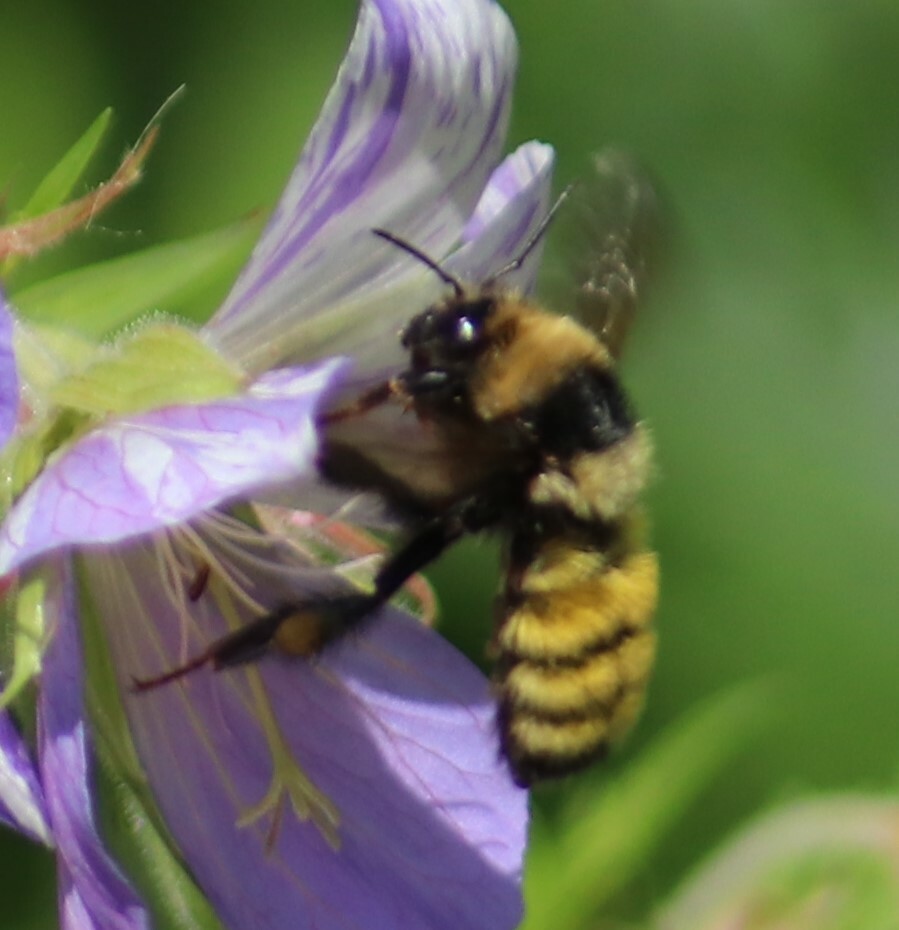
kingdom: Animalia
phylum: Arthropoda
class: Insecta
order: Hymenoptera
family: Apidae
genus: Bombus
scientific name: Bombus borealis
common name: Northern amber bumble bee
